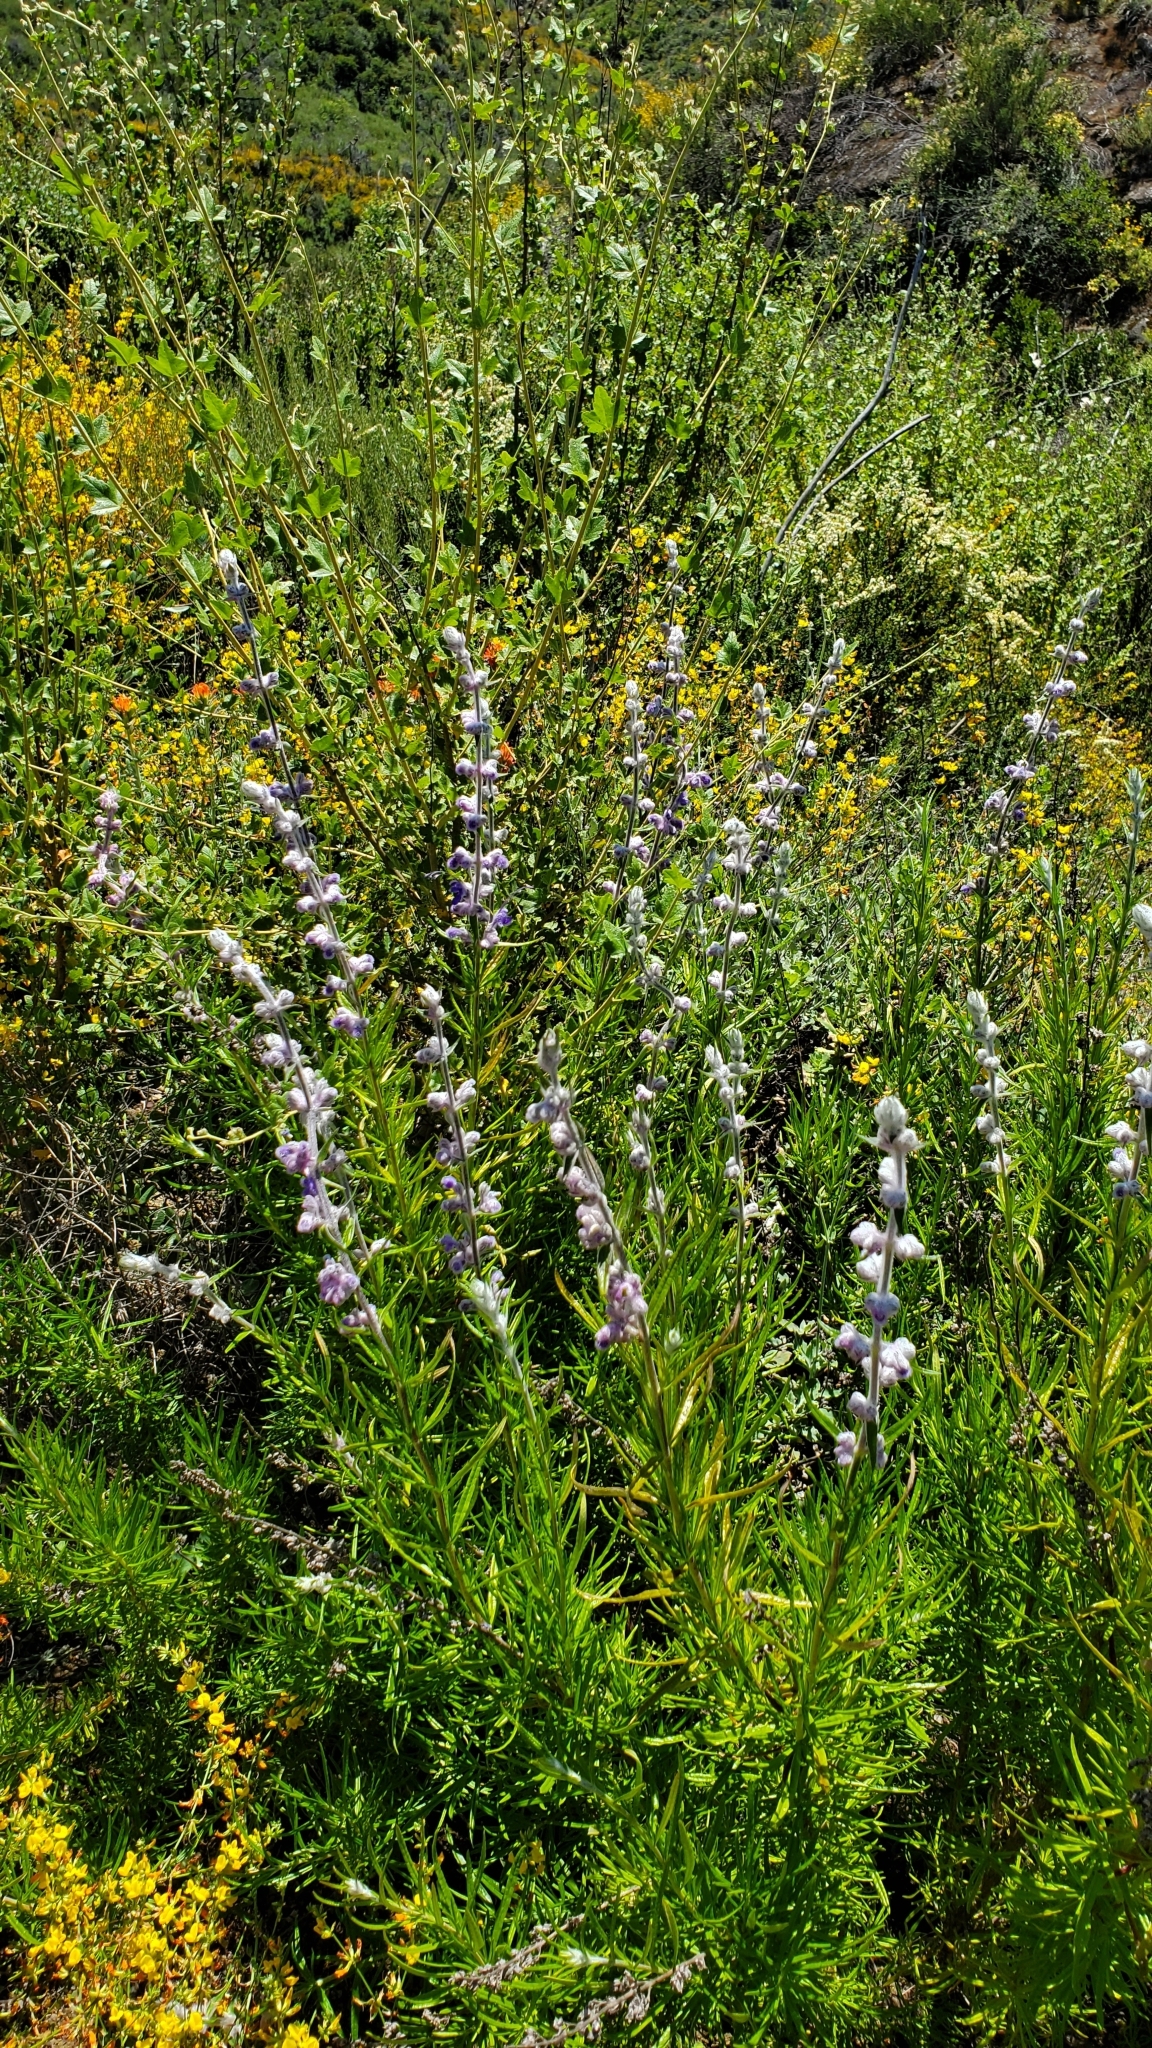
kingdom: Plantae
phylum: Tracheophyta
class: Magnoliopsida
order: Lamiales
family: Lamiaceae
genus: Trichostema
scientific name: Trichostema lanatum
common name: Woolly bluecurls
